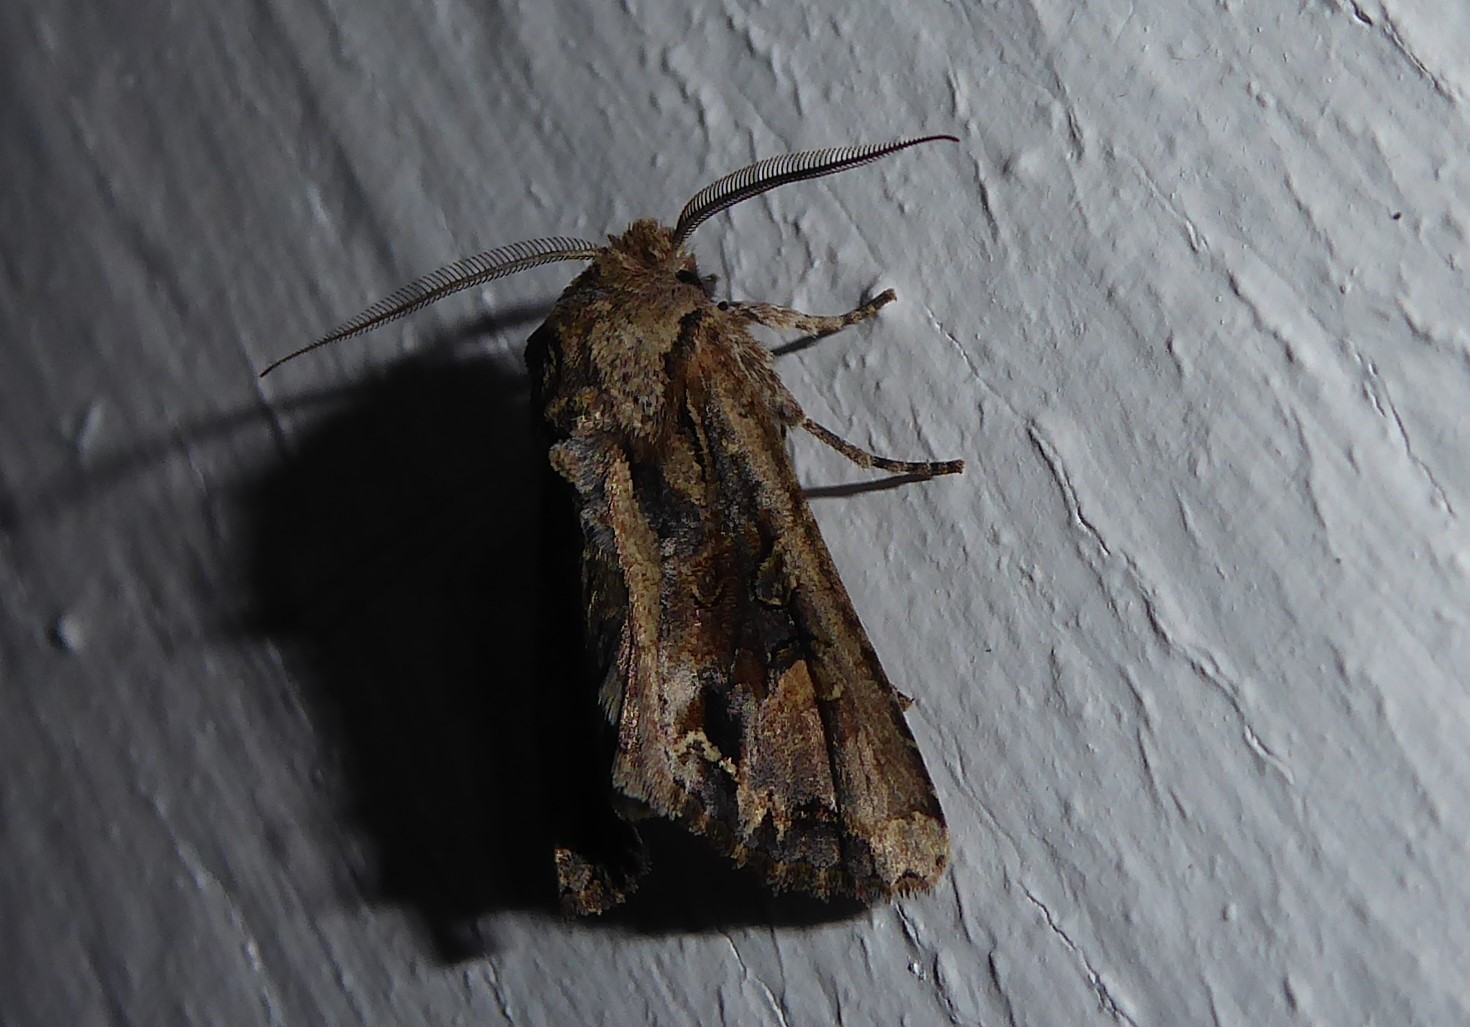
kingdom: Animalia
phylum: Arthropoda
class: Insecta
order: Lepidoptera
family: Noctuidae
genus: Ichneutica
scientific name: Ichneutica
